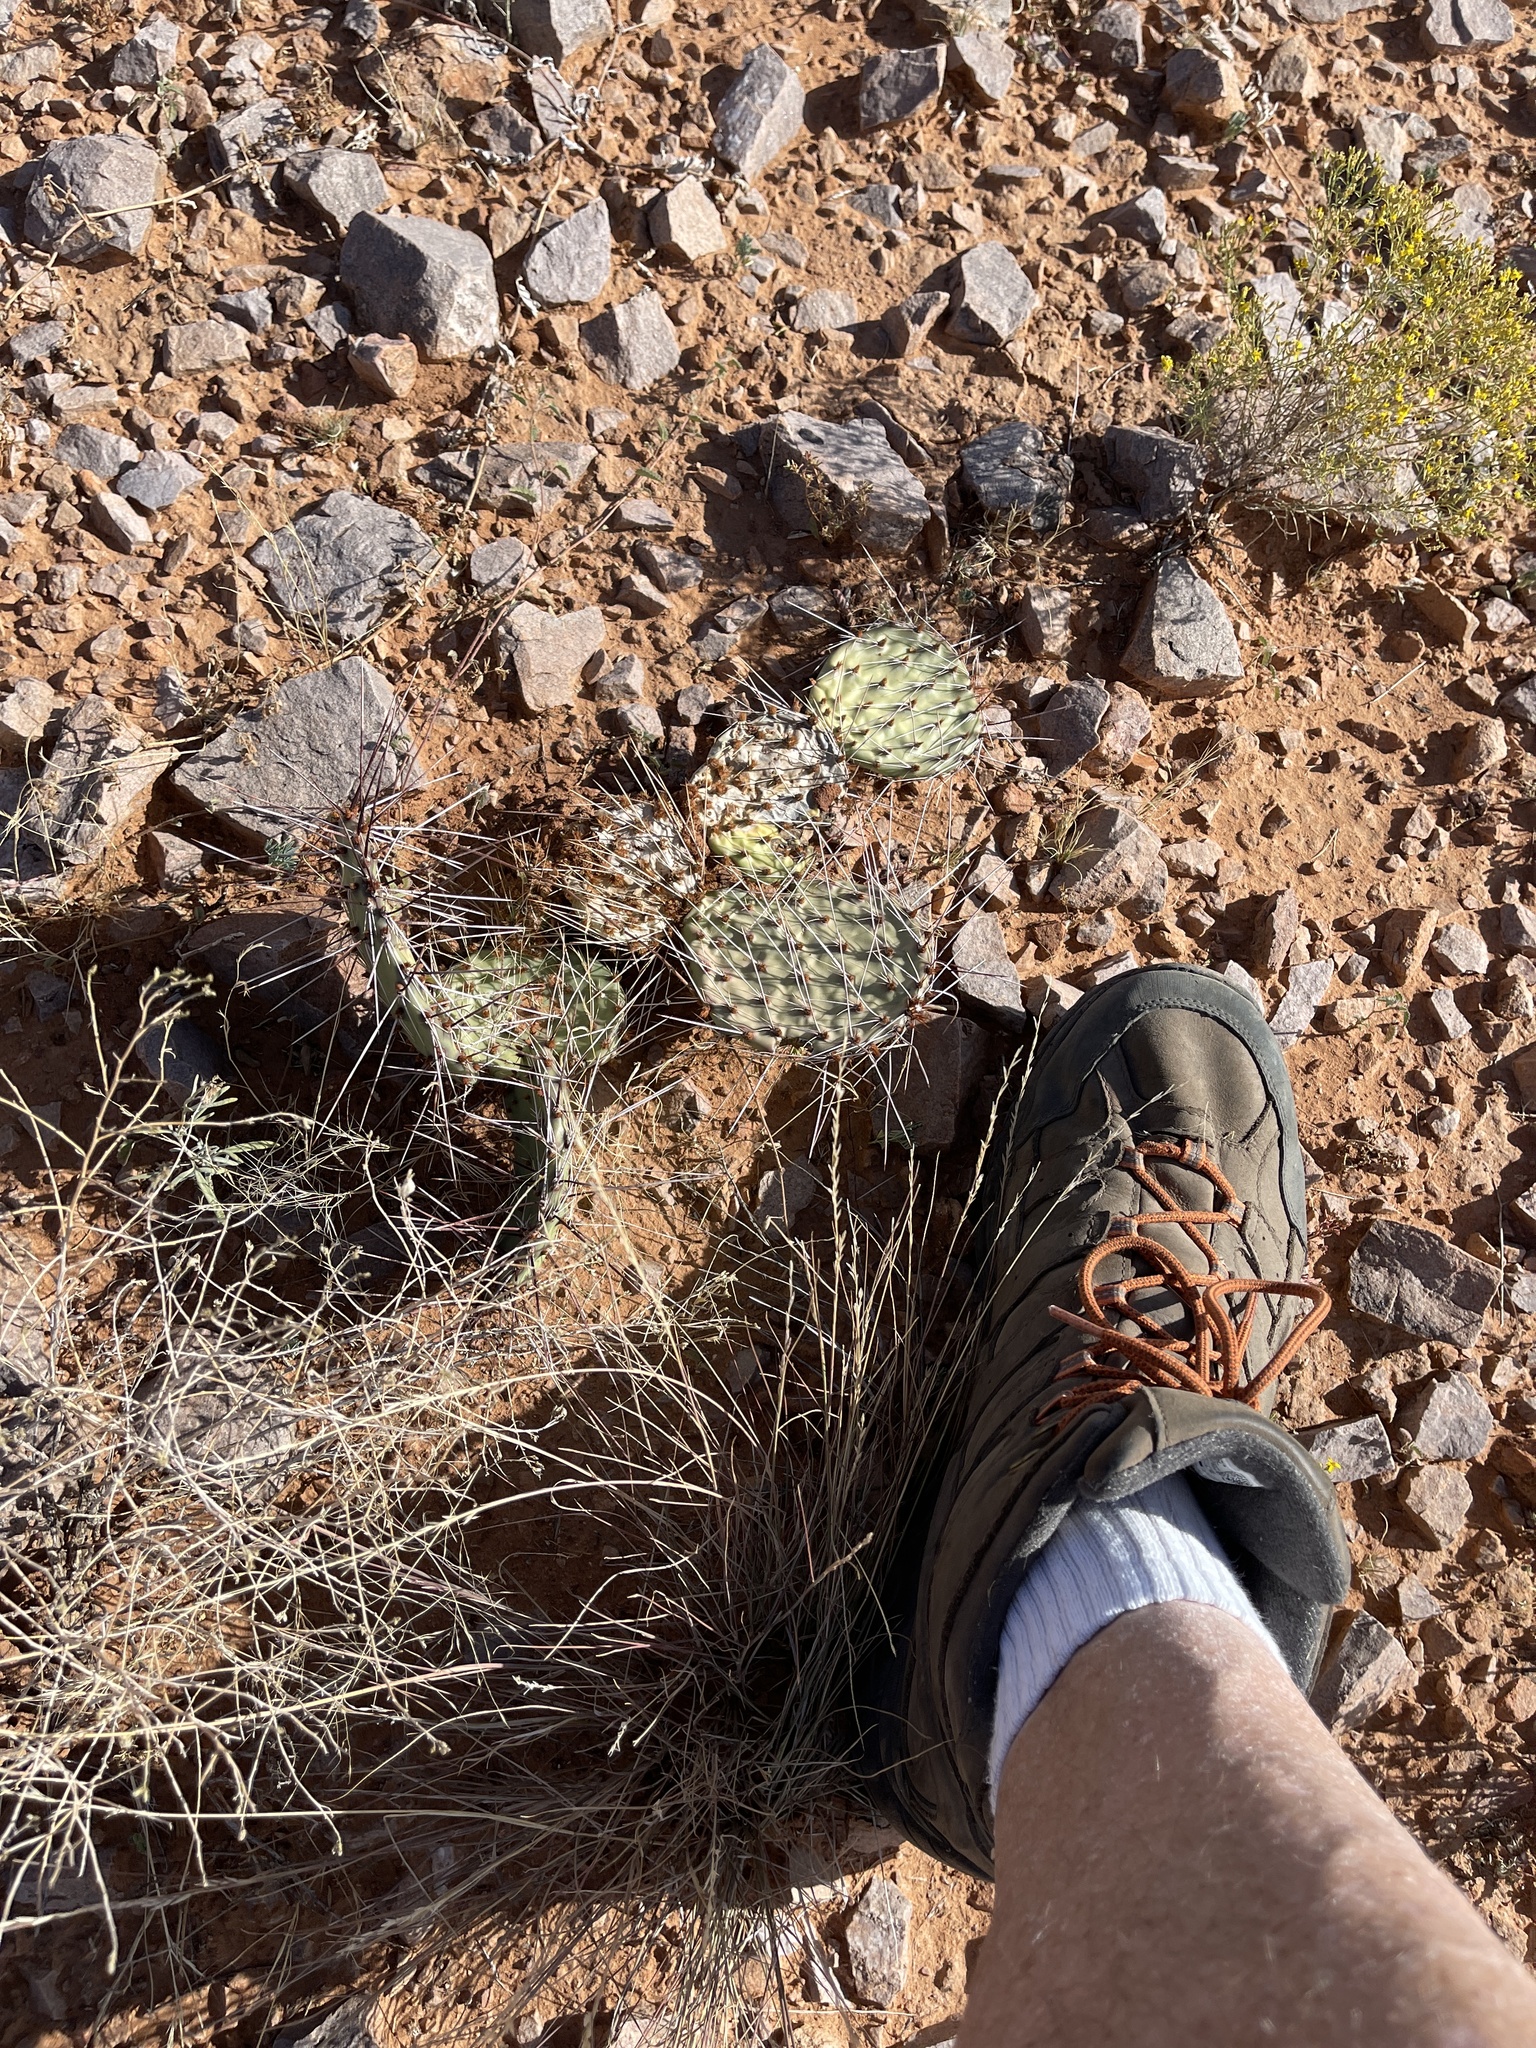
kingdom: Plantae
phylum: Tracheophyta
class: Magnoliopsida
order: Caryophyllales
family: Cactaceae
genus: Opuntia
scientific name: Opuntia macrorhiza
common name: Grassland pricklypear
